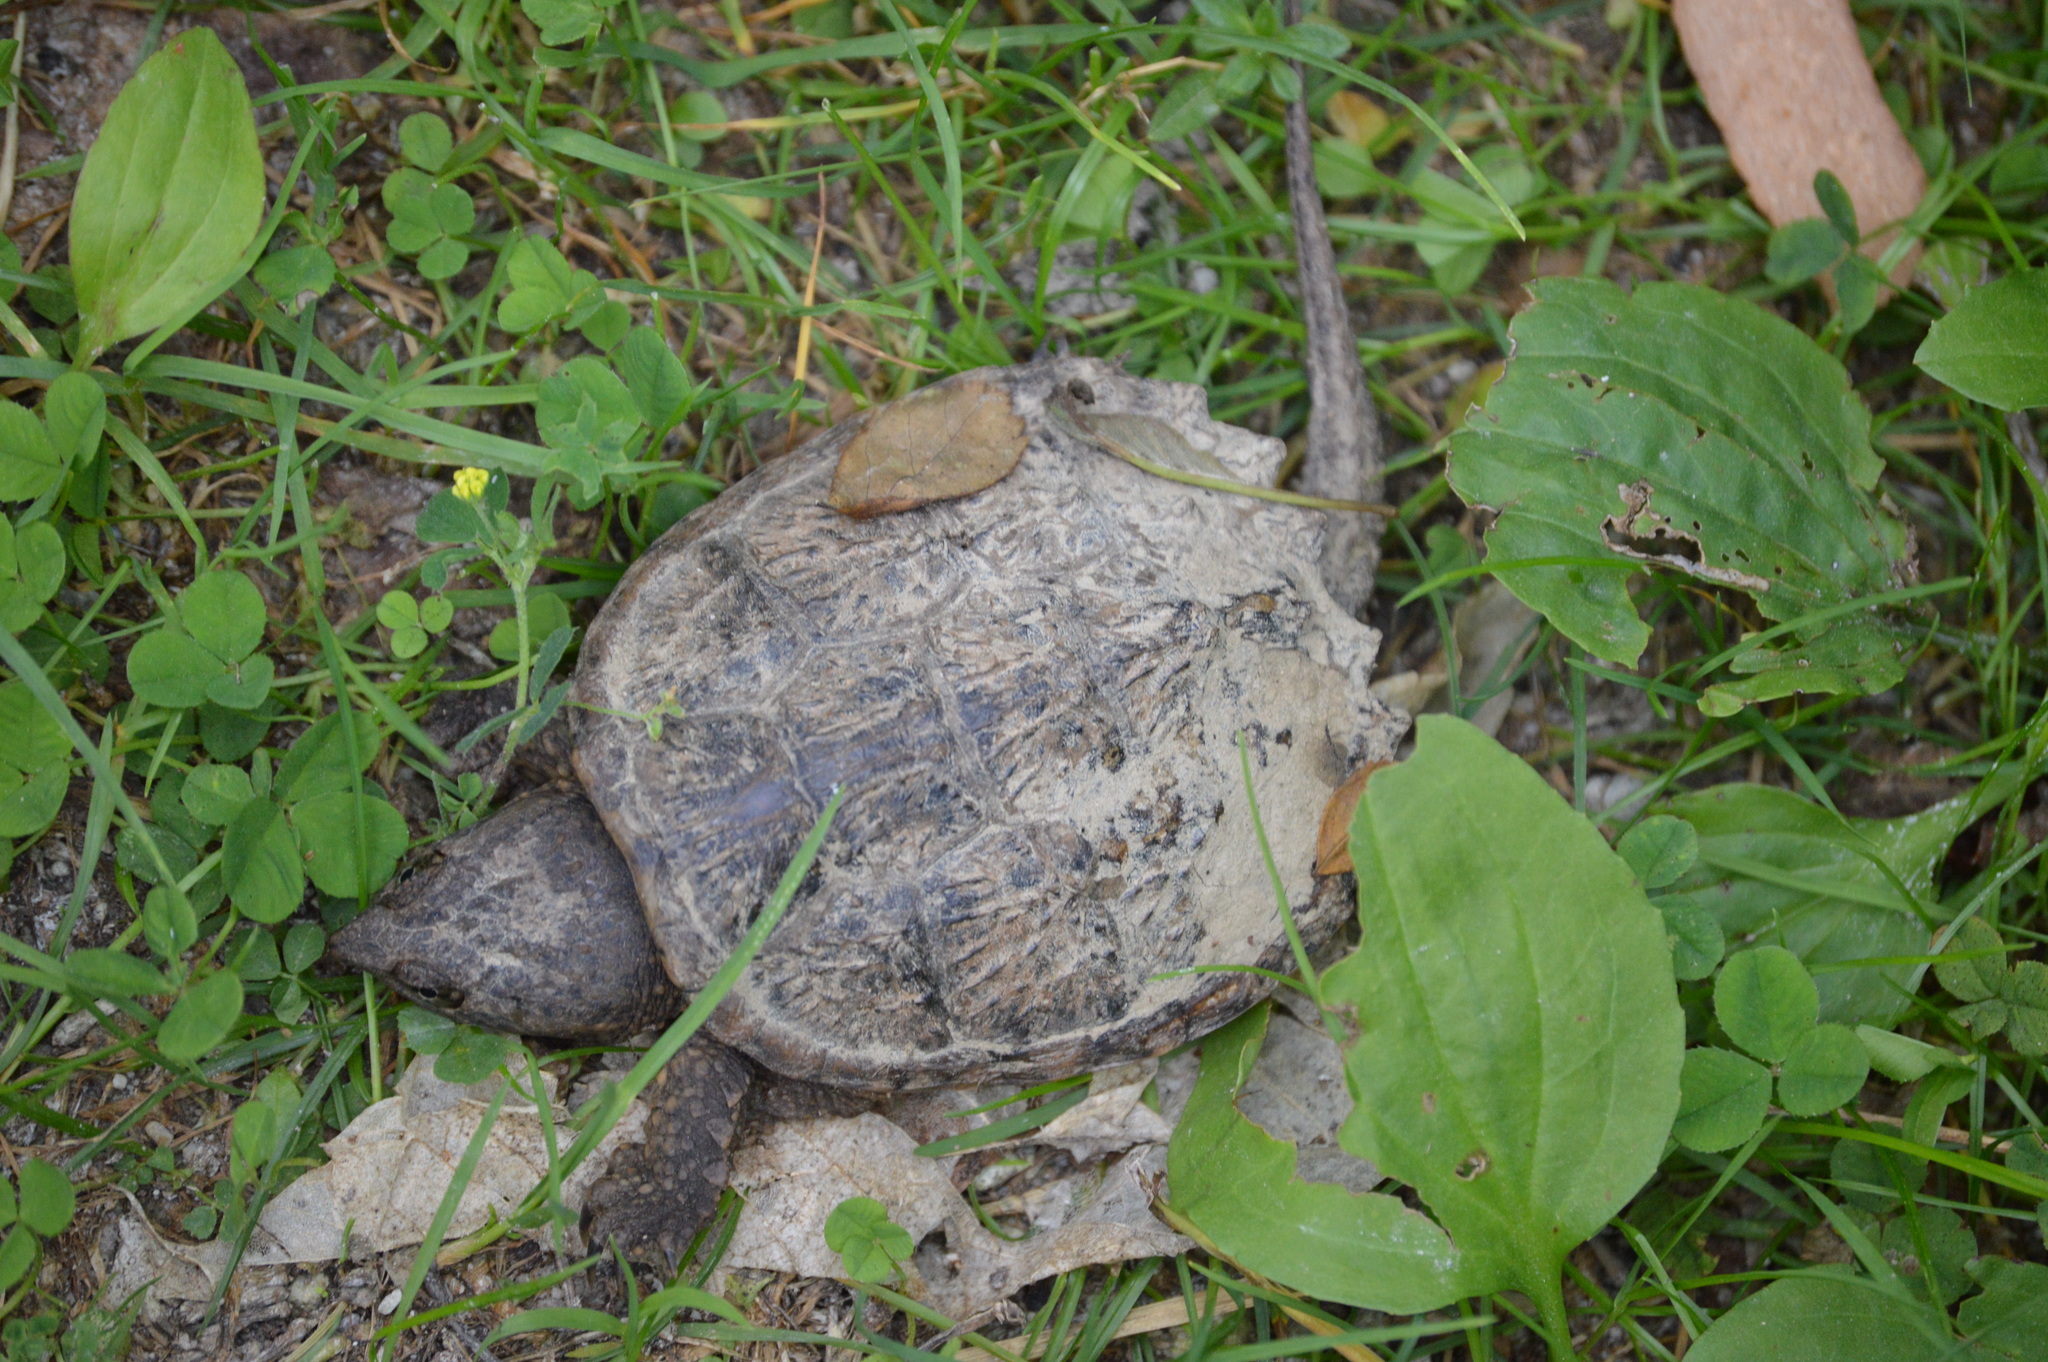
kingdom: Animalia
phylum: Chordata
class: Testudines
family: Chelydridae
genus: Chelydra
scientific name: Chelydra serpentina
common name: Common snapping turtle
